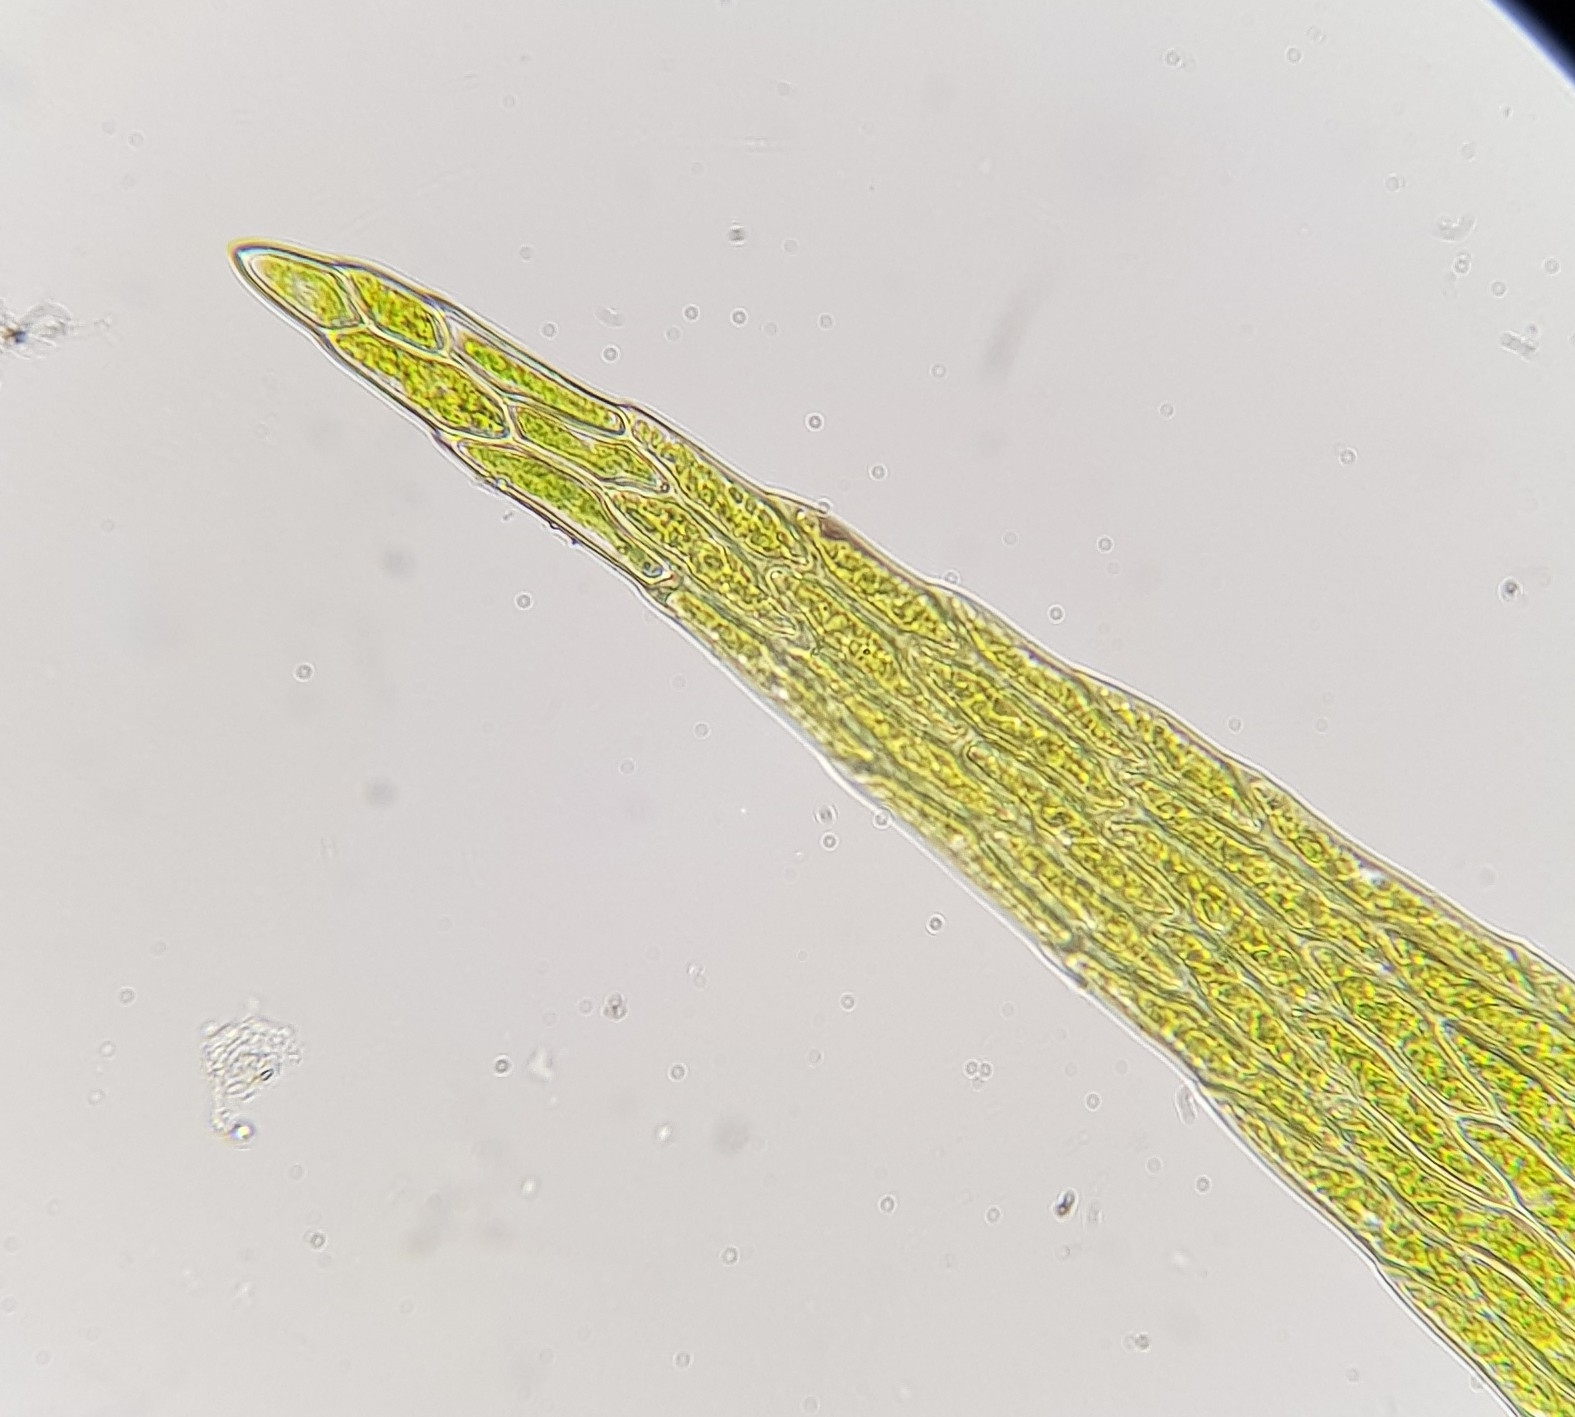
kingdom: Plantae
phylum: Bryophyta
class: Bryopsida
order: Hypnales
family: Amblystegiaceae
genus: Leptodictyum
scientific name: Leptodictyum riparium
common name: Riparian feather moss
